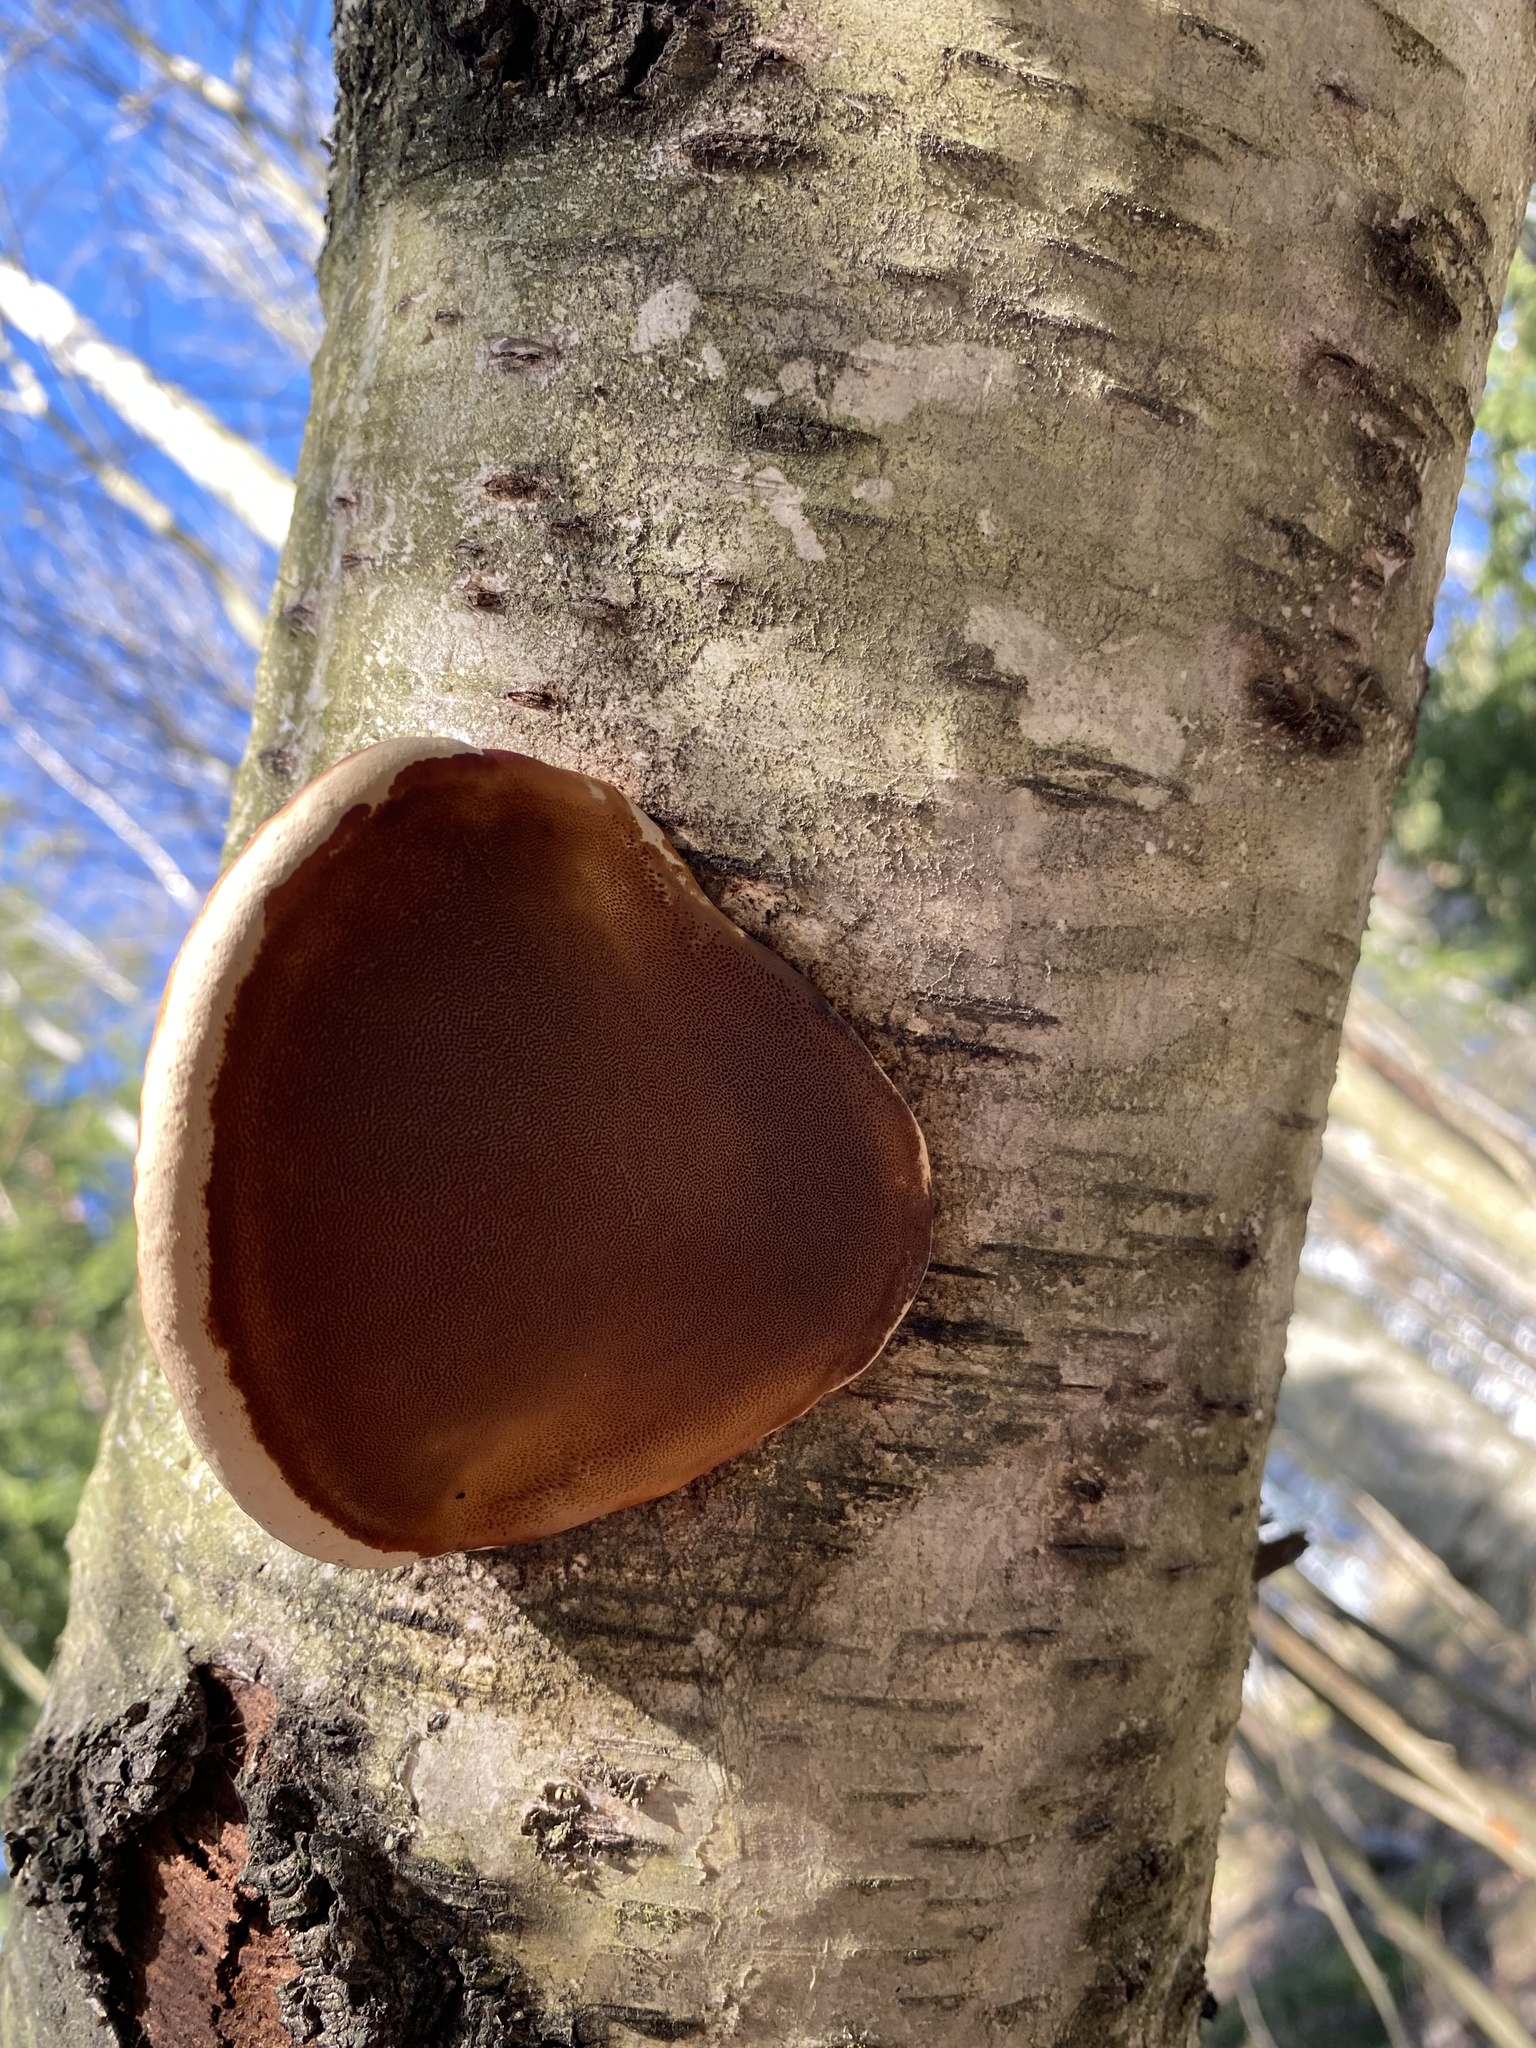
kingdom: Fungi
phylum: Basidiomycota
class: Agaricomycetes
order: Polyporales
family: Fomitopsidaceae
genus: Fomitopsis
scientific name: Fomitopsis pinicola
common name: Red-belted bracket
